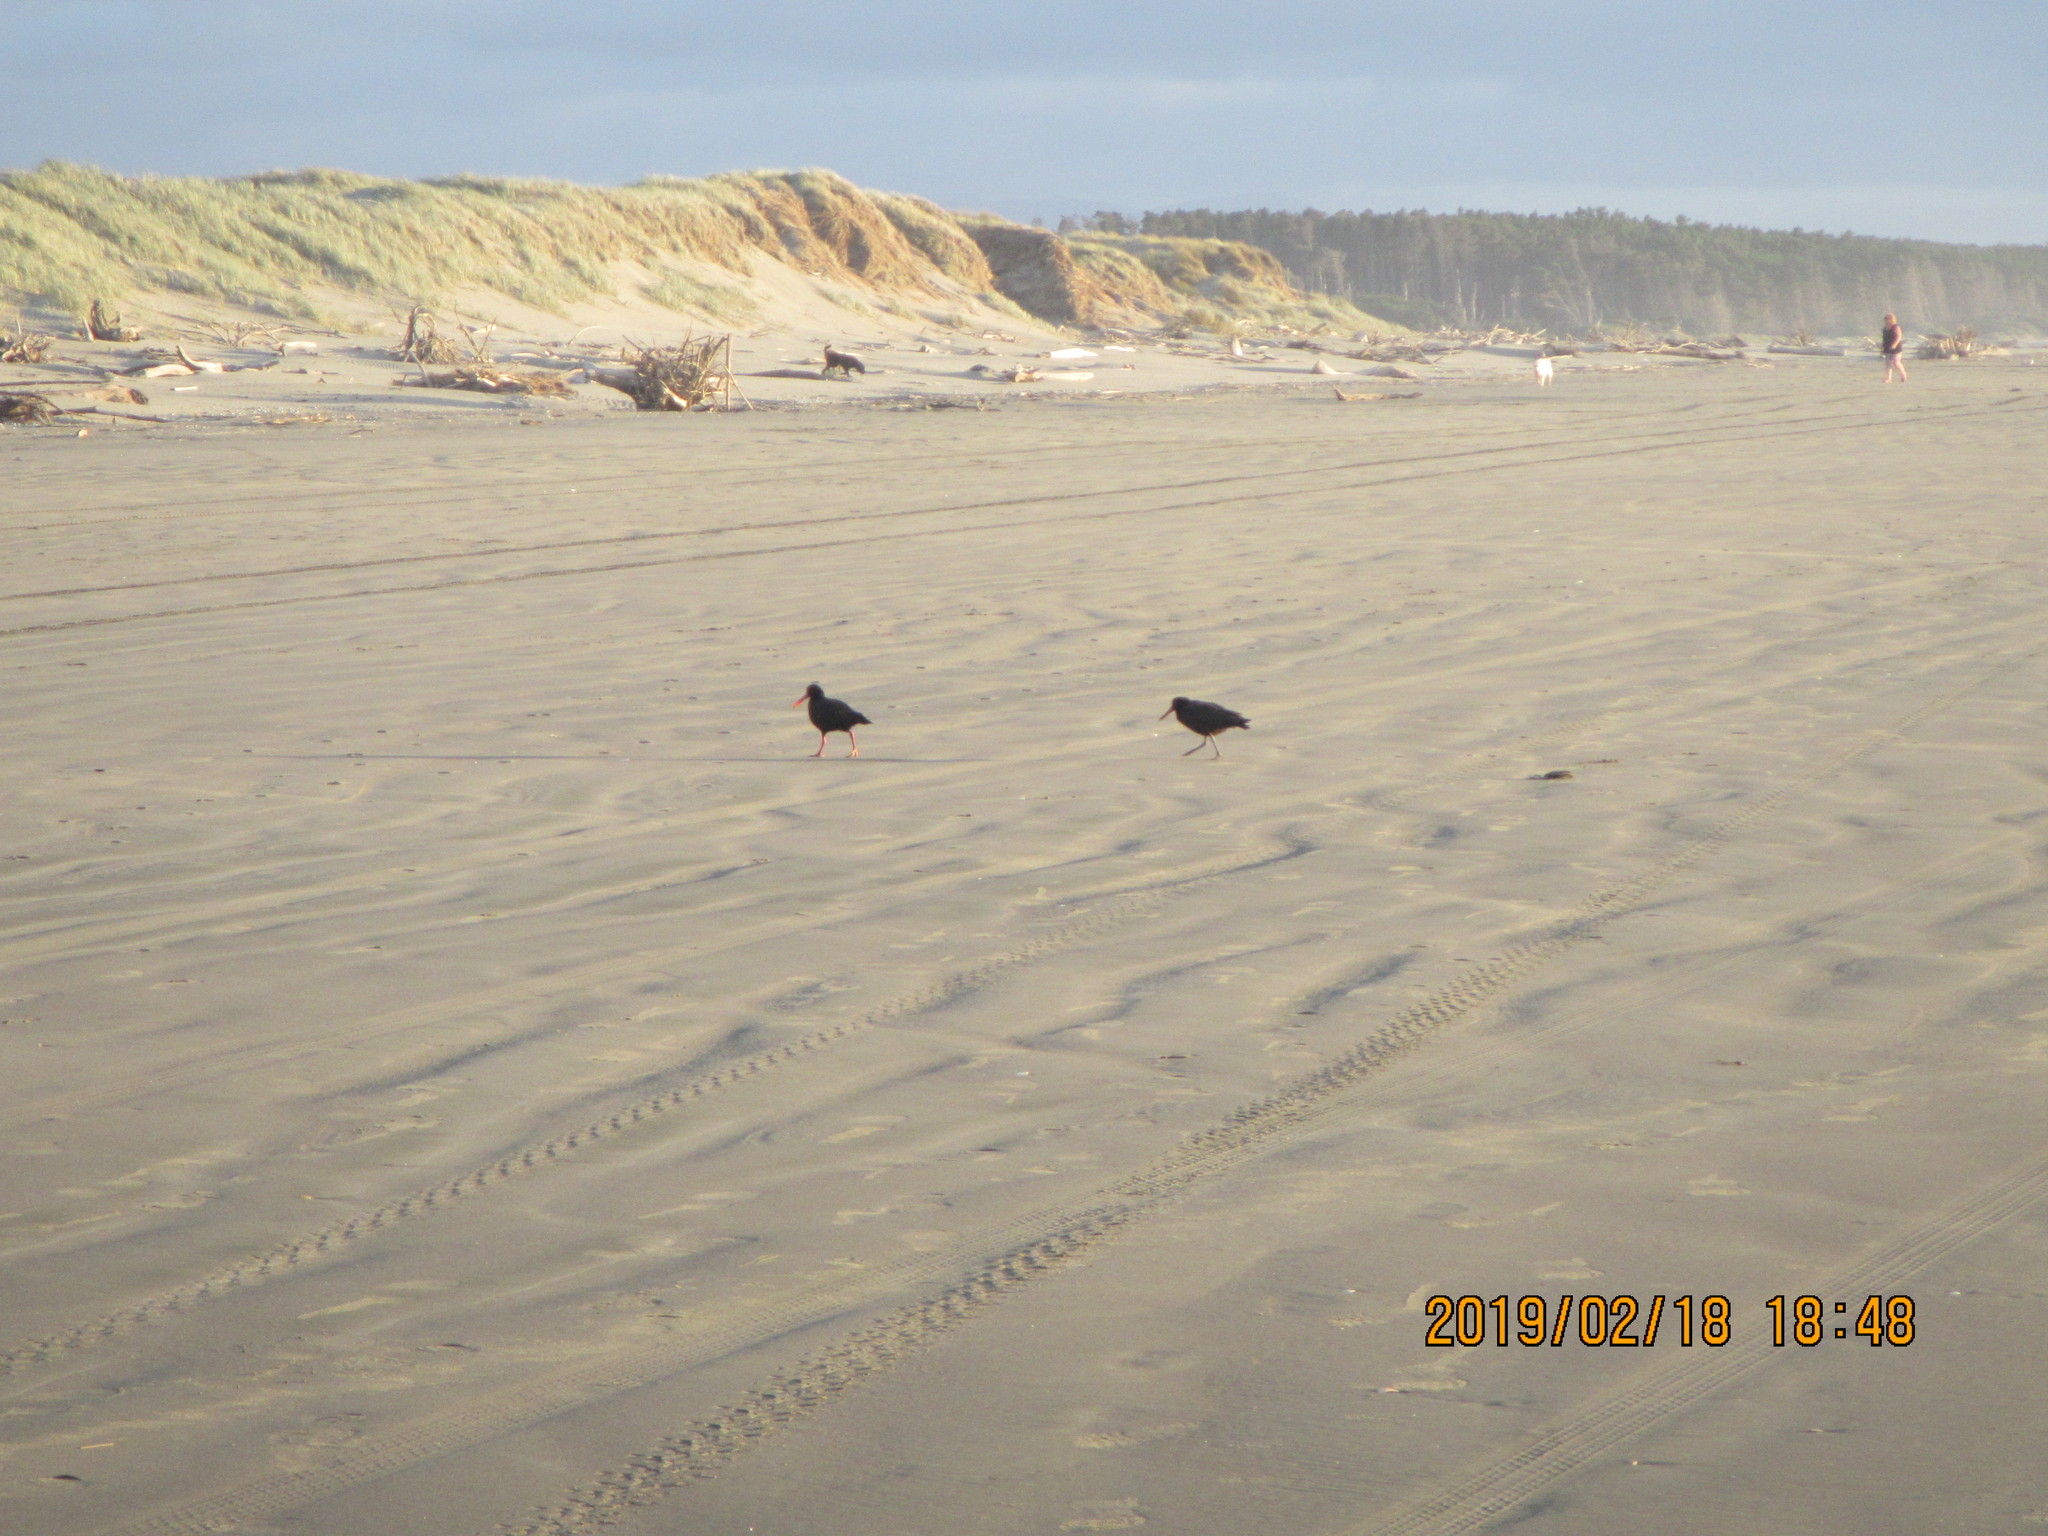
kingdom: Animalia
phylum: Chordata
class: Aves
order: Charadriiformes
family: Haematopodidae
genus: Haematopus
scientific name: Haematopus unicolor
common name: Variable oystercatcher
